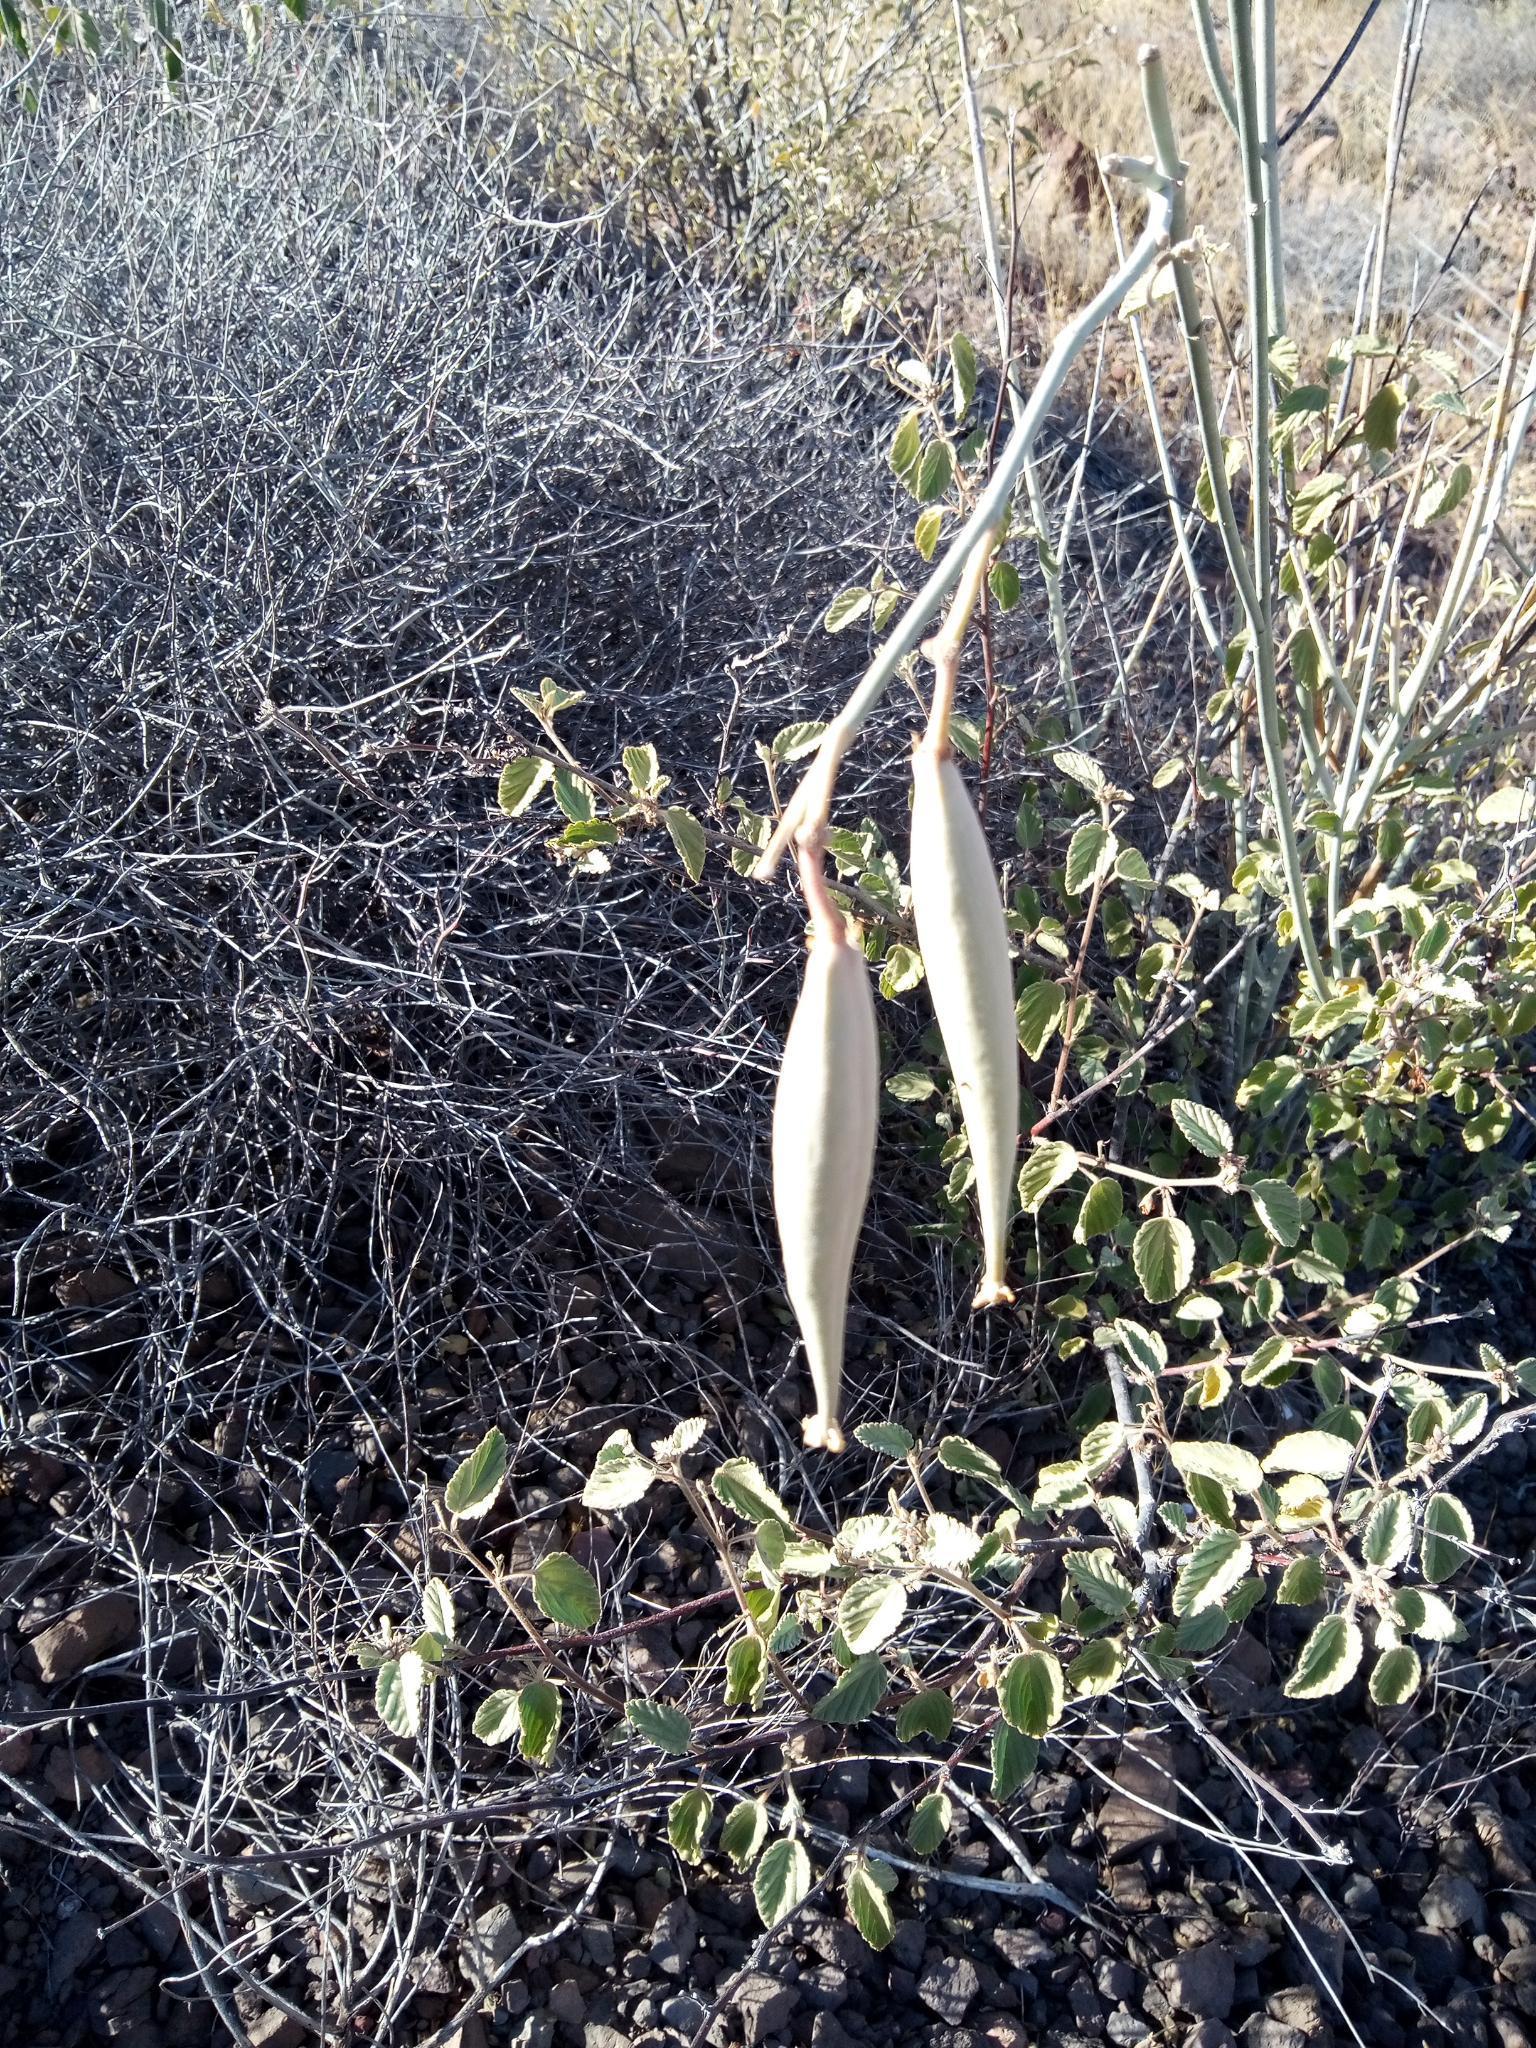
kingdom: Plantae
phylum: Tracheophyta
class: Magnoliopsida
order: Gentianales
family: Apocynaceae
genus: Asclepias
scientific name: Asclepias subulata
